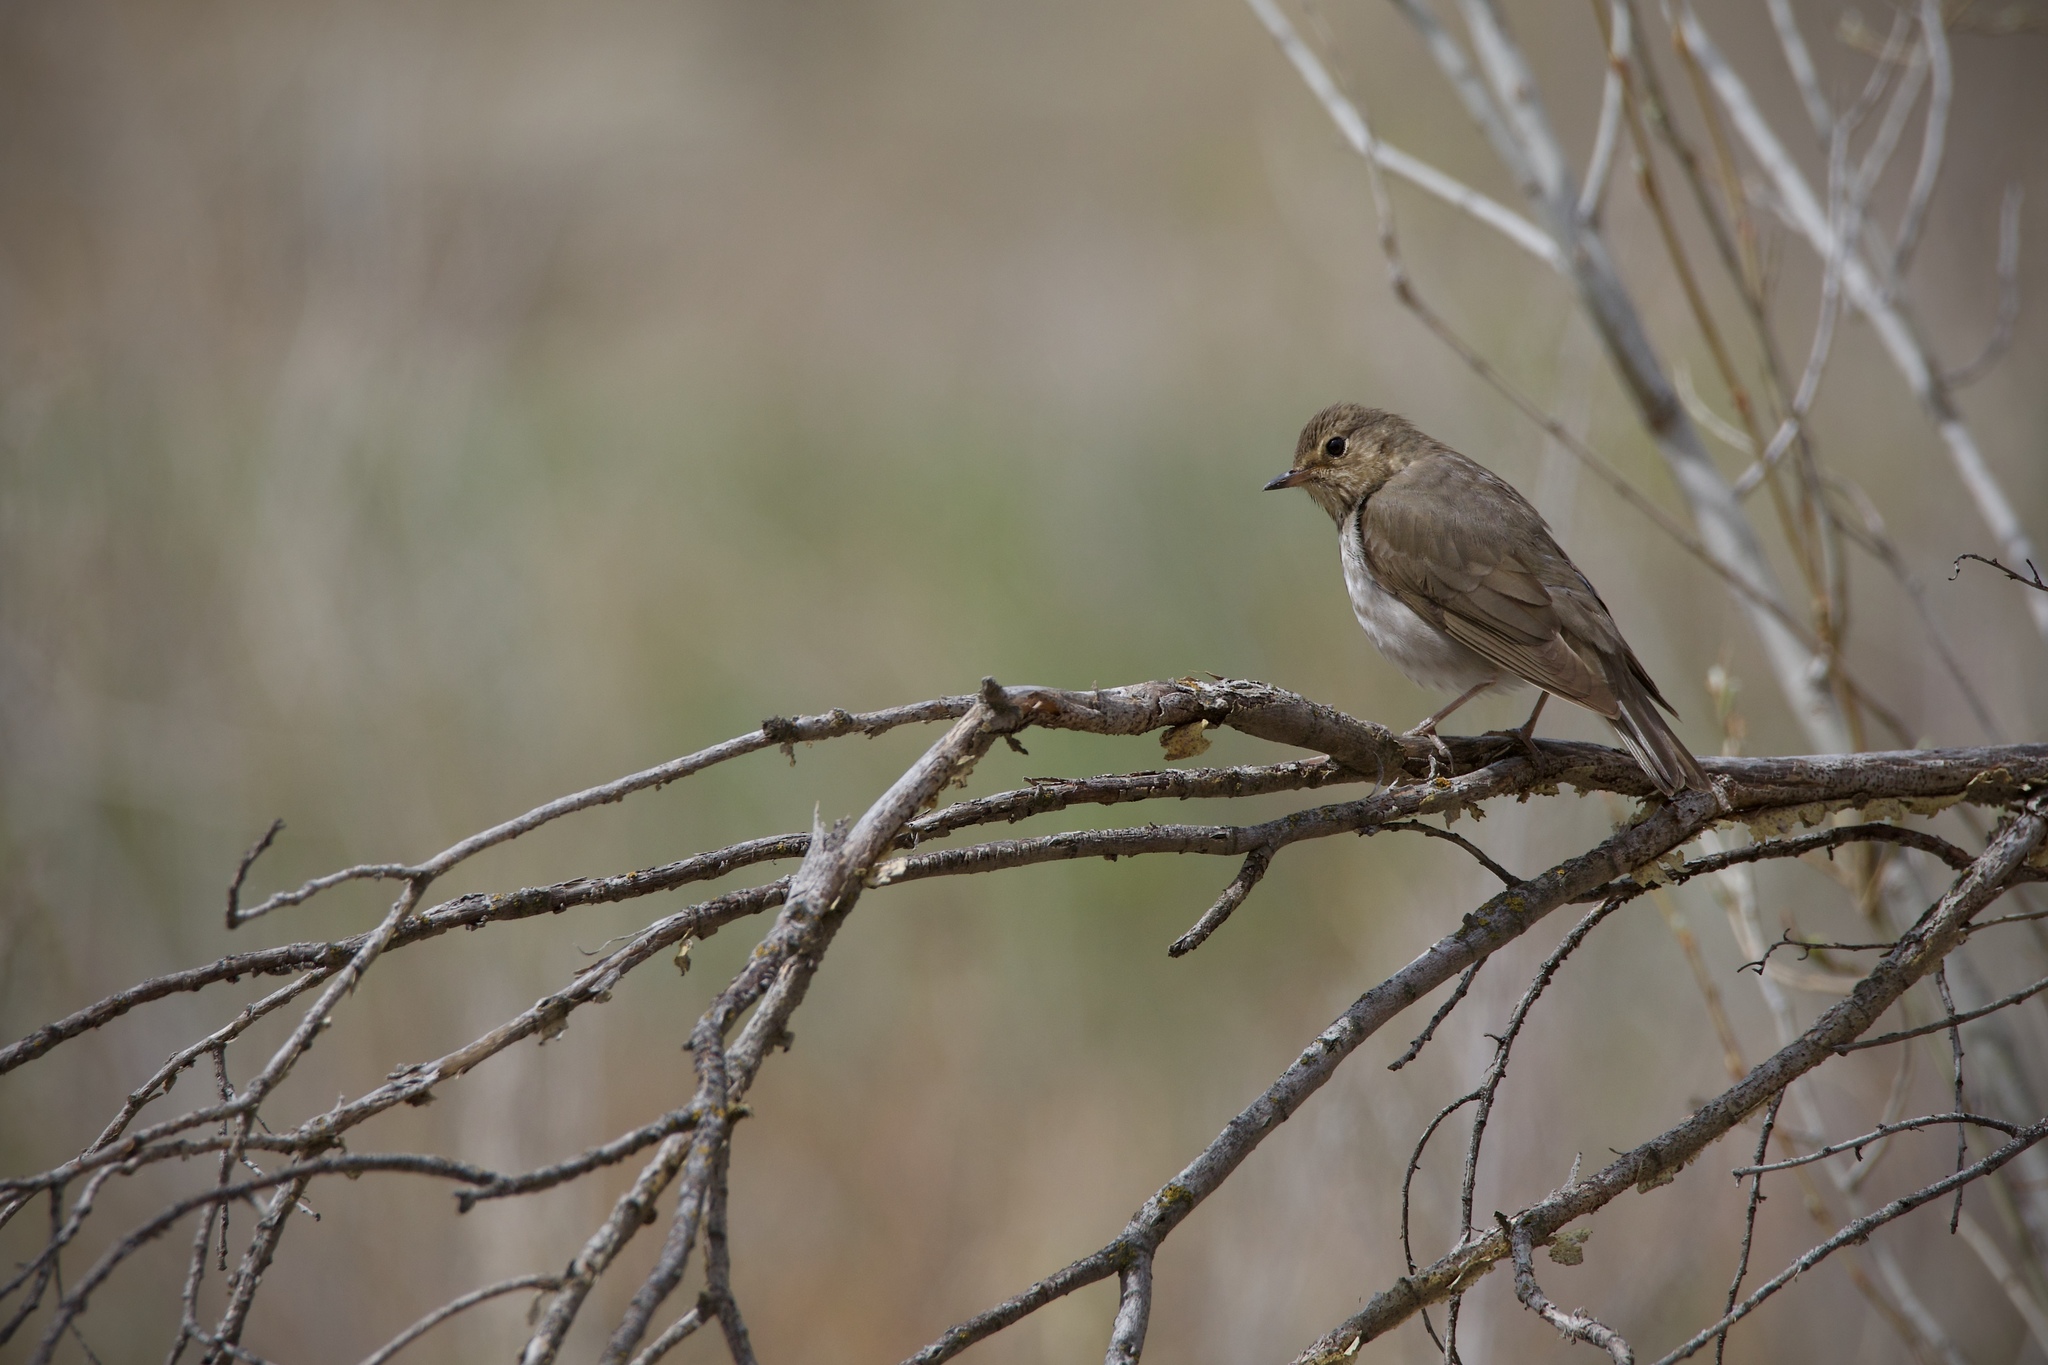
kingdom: Animalia
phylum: Chordata
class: Aves
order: Passeriformes
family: Turdidae
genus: Catharus
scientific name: Catharus ustulatus
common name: Swainson's thrush
